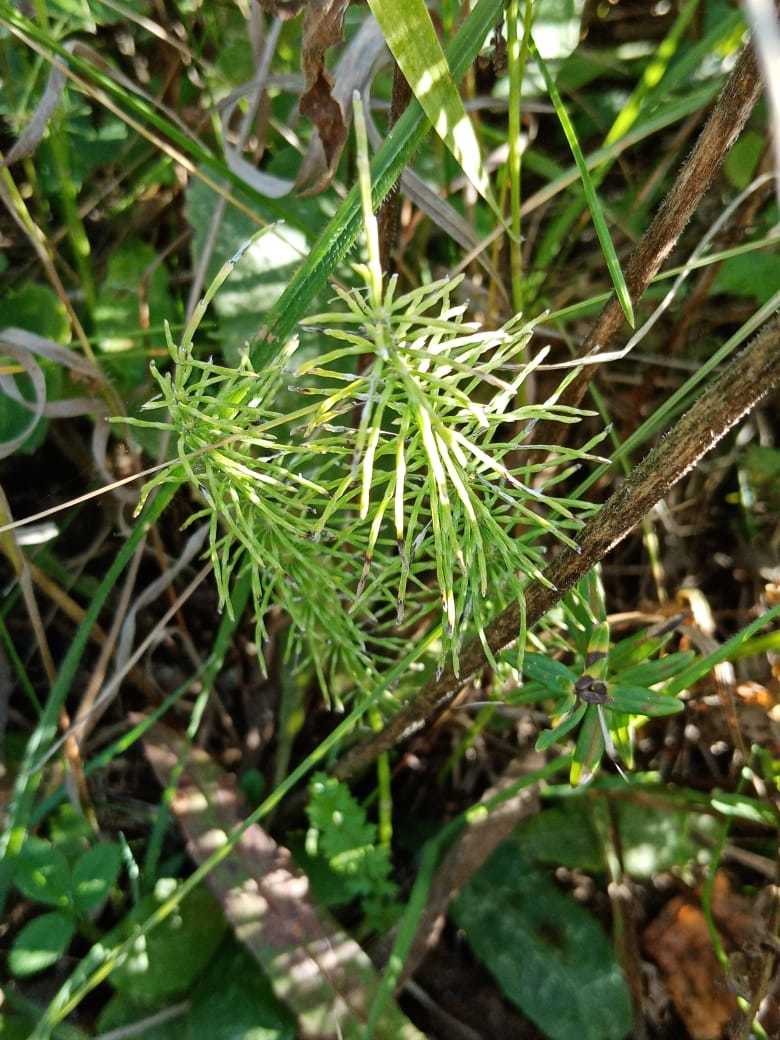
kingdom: Plantae
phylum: Tracheophyta
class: Polypodiopsida
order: Equisetales
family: Equisetaceae
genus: Equisetum
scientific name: Equisetum pratense
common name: Meadow horsetail
